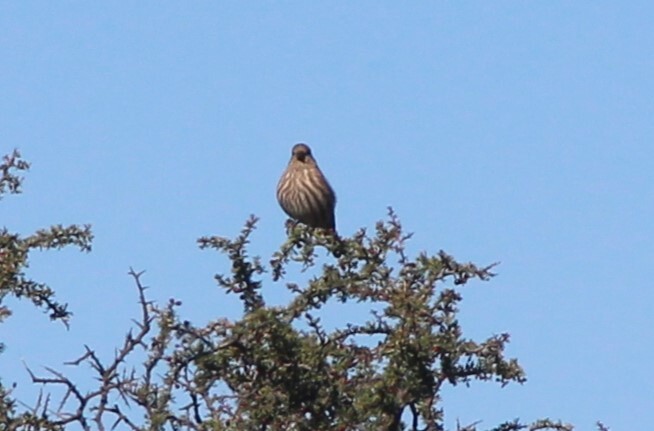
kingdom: Animalia
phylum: Chordata
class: Aves
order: Passeriformes
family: Fringillidae
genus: Haemorhous
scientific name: Haemorhous mexicanus
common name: House finch
